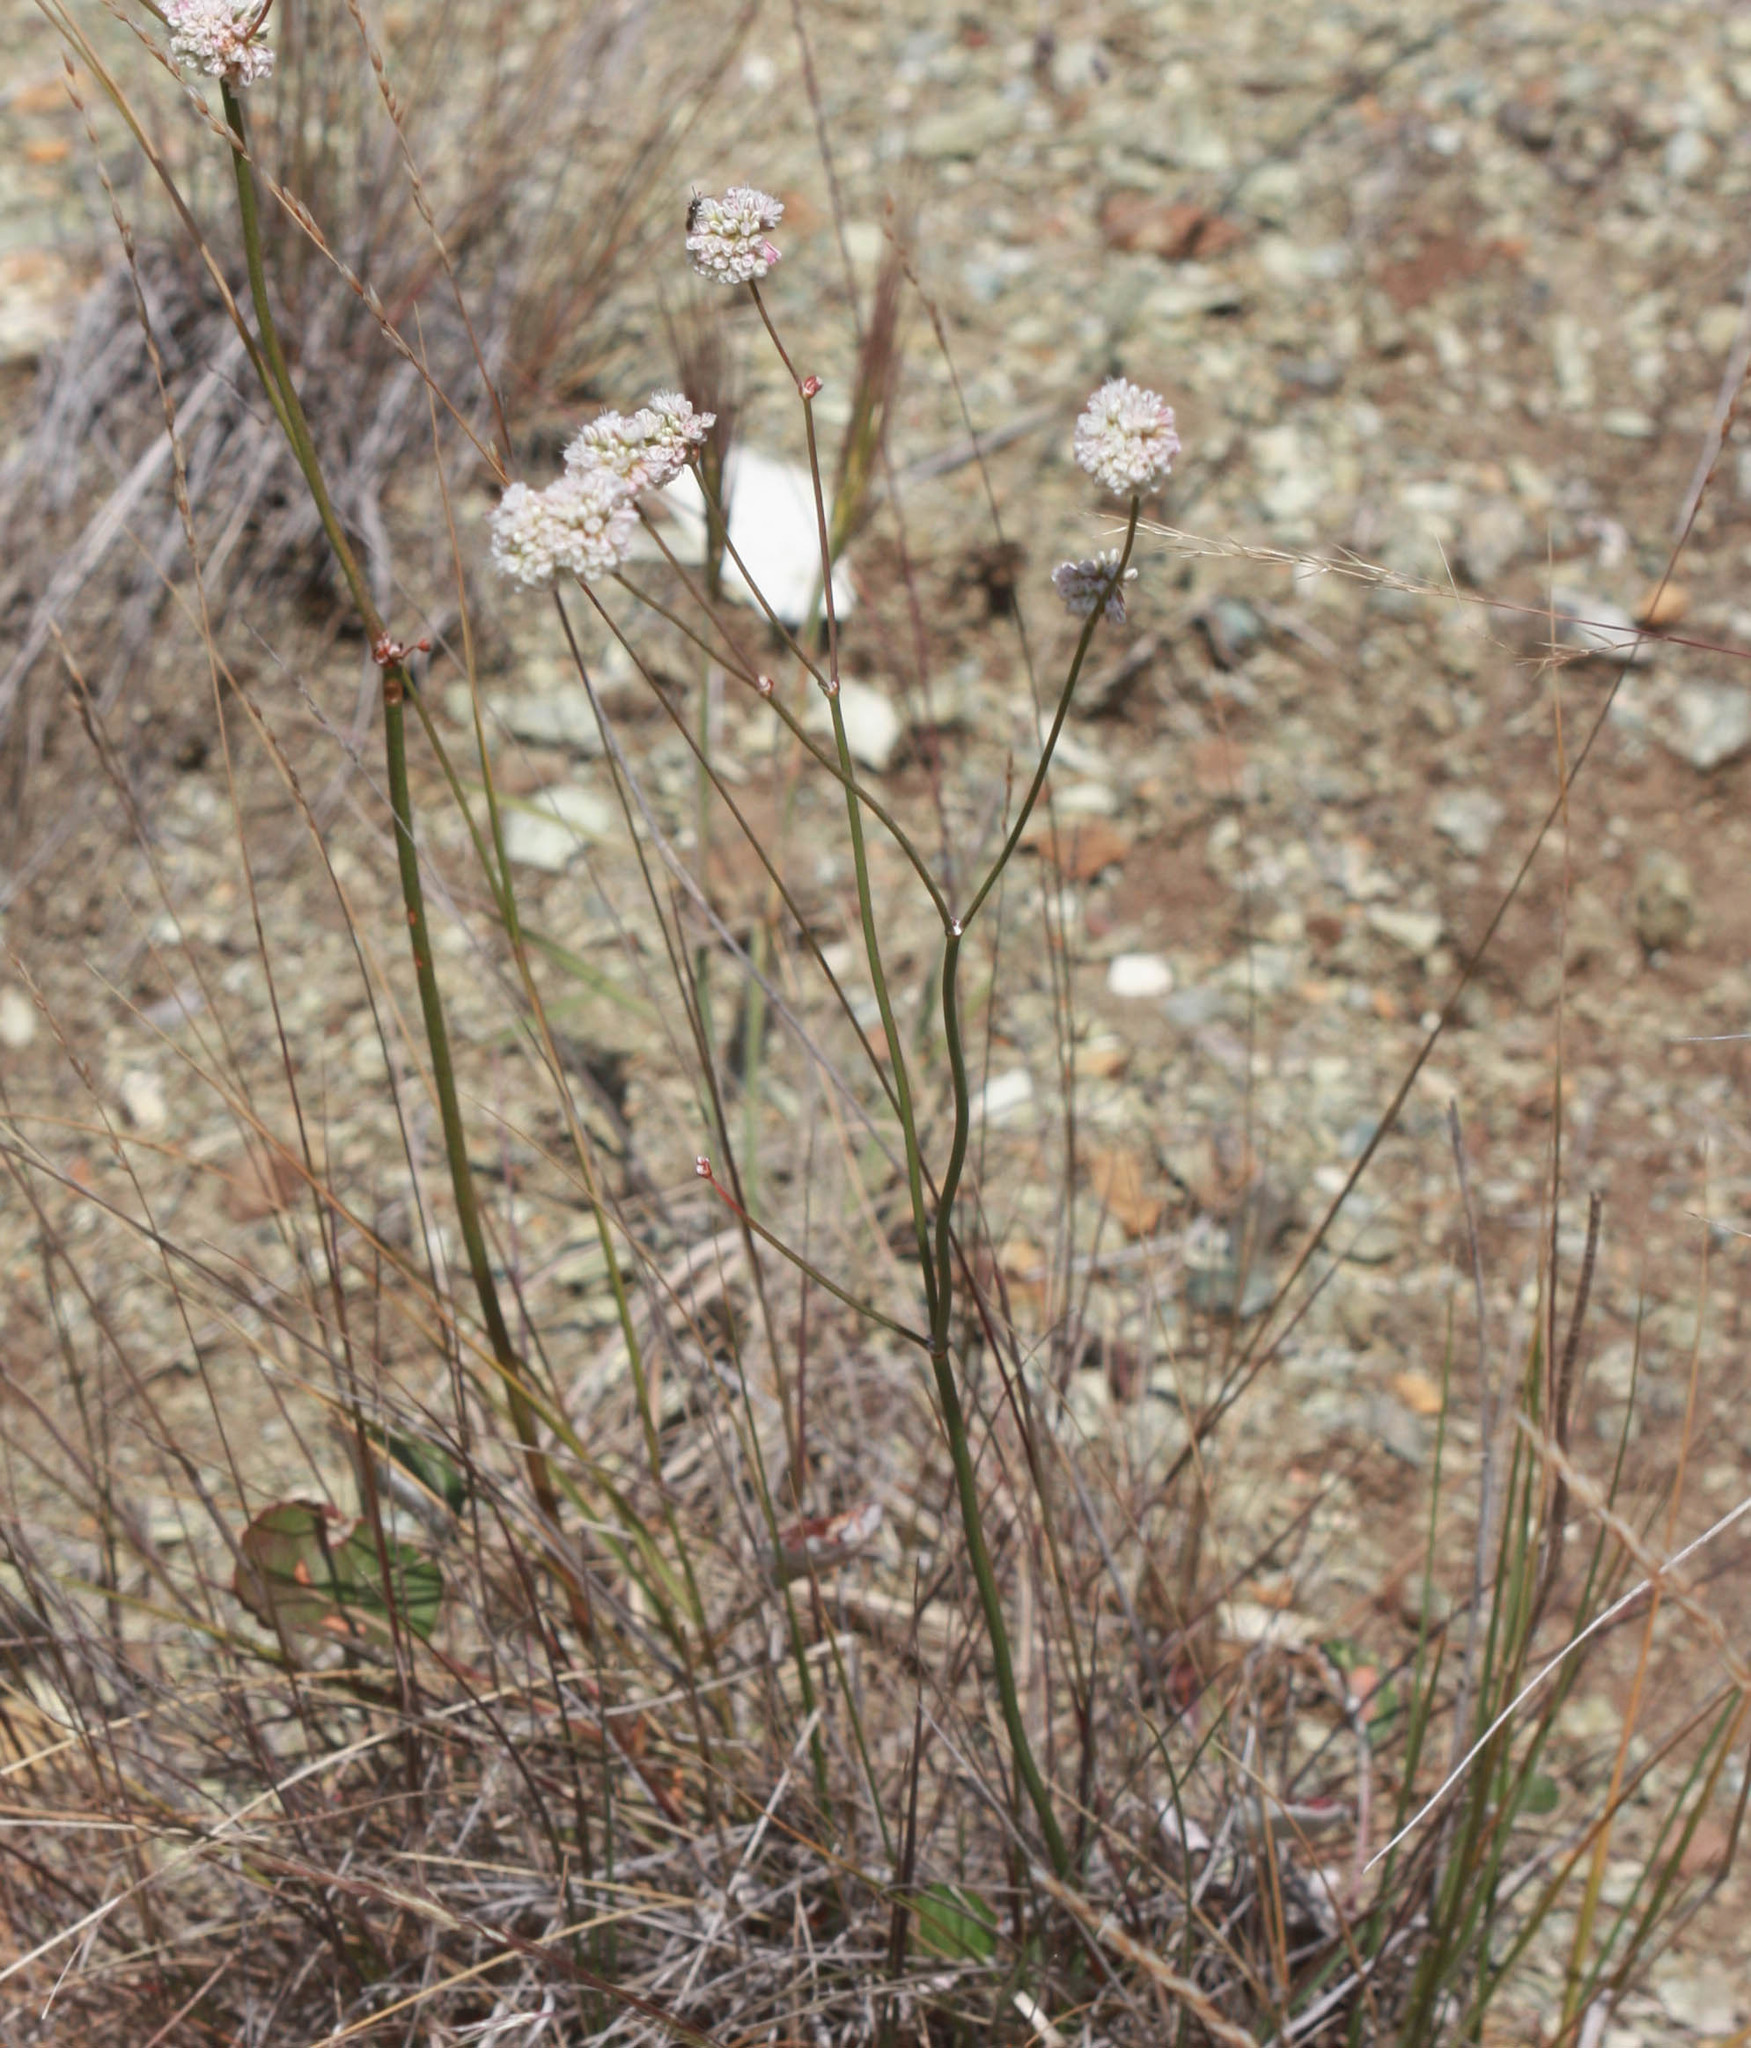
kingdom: Plantae
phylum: Tracheophyta
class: Magnoliopsida
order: Caryophyllales
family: Polygonaceae
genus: Eriogonum
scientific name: Eriogonum nudum
